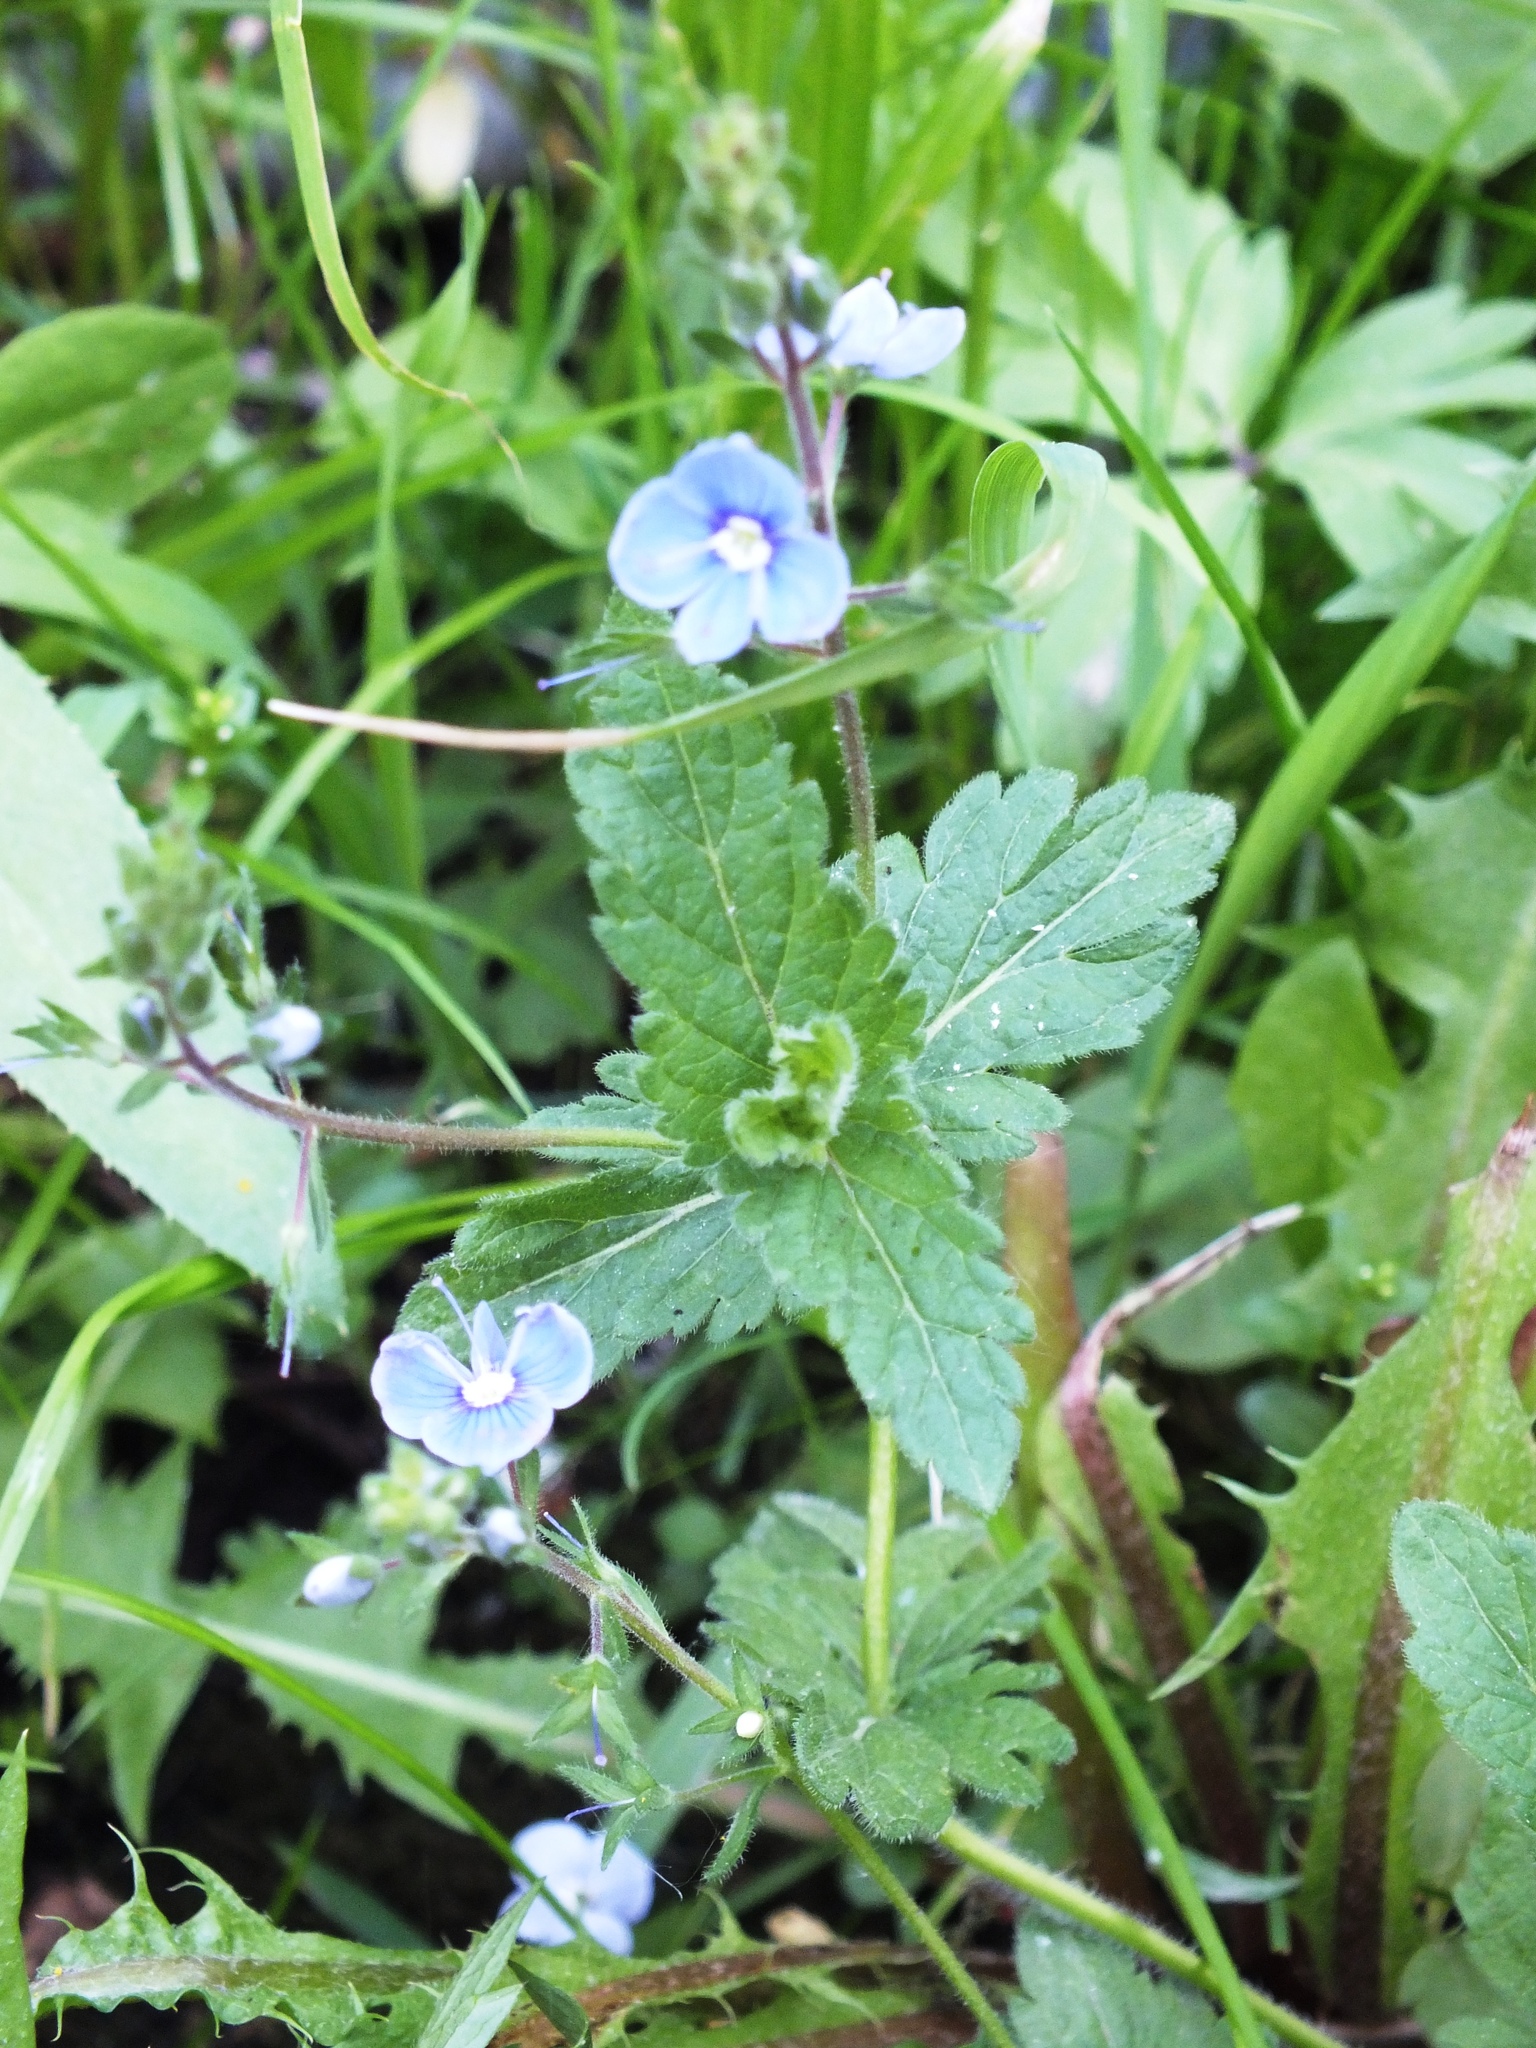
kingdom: Plantae
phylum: Tracheophyta
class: Magnoliopsida
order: Lamiales
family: Plantaginaceae
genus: Veronica
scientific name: Veronica chamaedrys
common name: Germander speedwell
